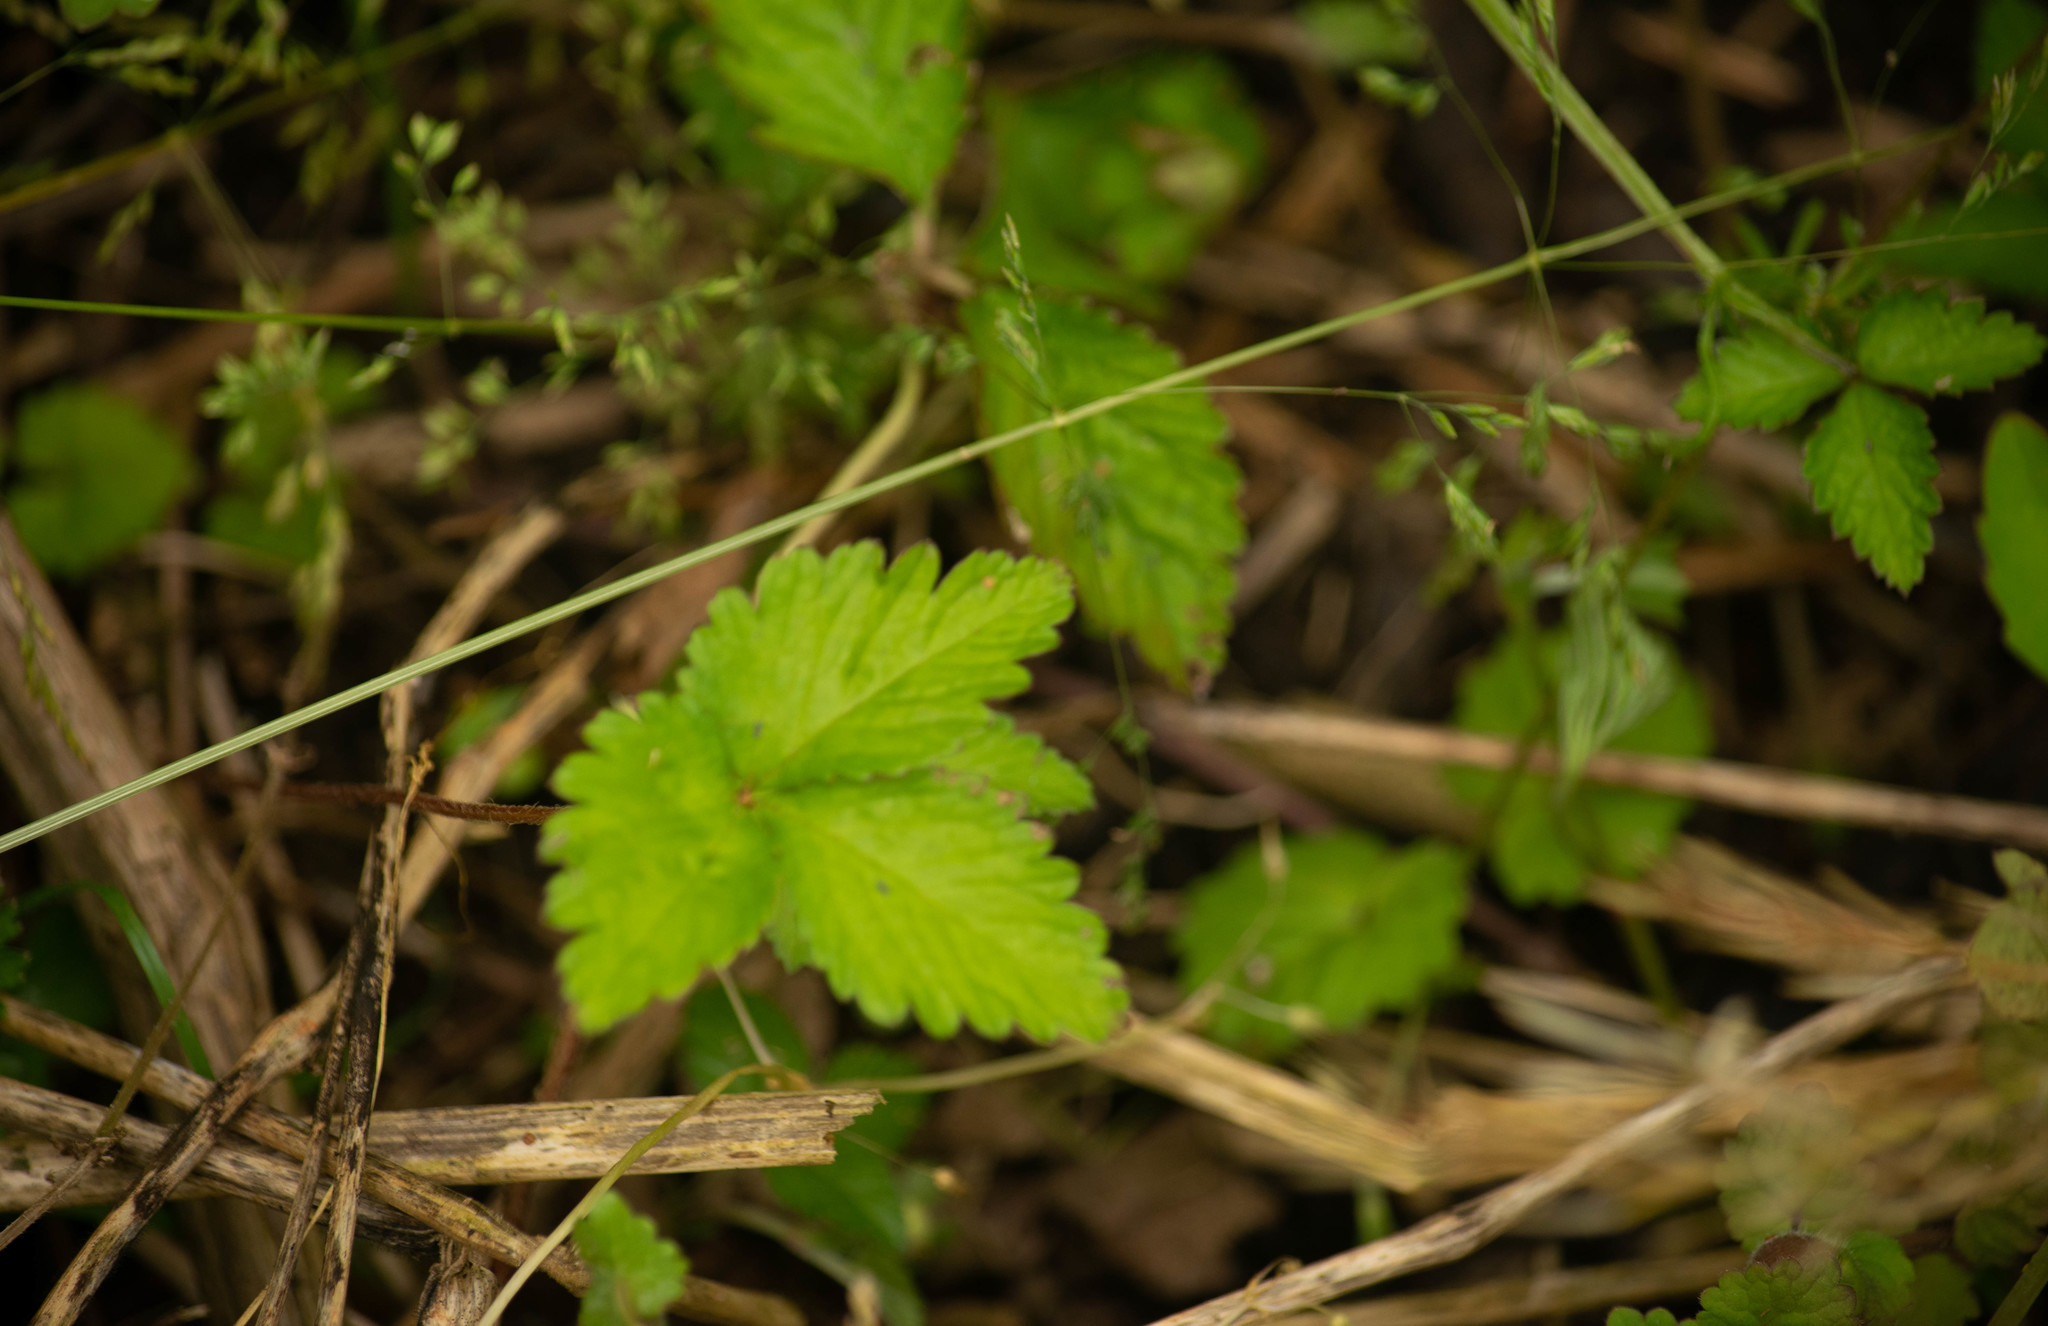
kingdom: Plantae
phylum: Tracheophyta
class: Magnoliopsida
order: Rosales
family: Rosaceae
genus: Potentilla
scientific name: Potentilla indica
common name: Yellow-flowered strawberry
